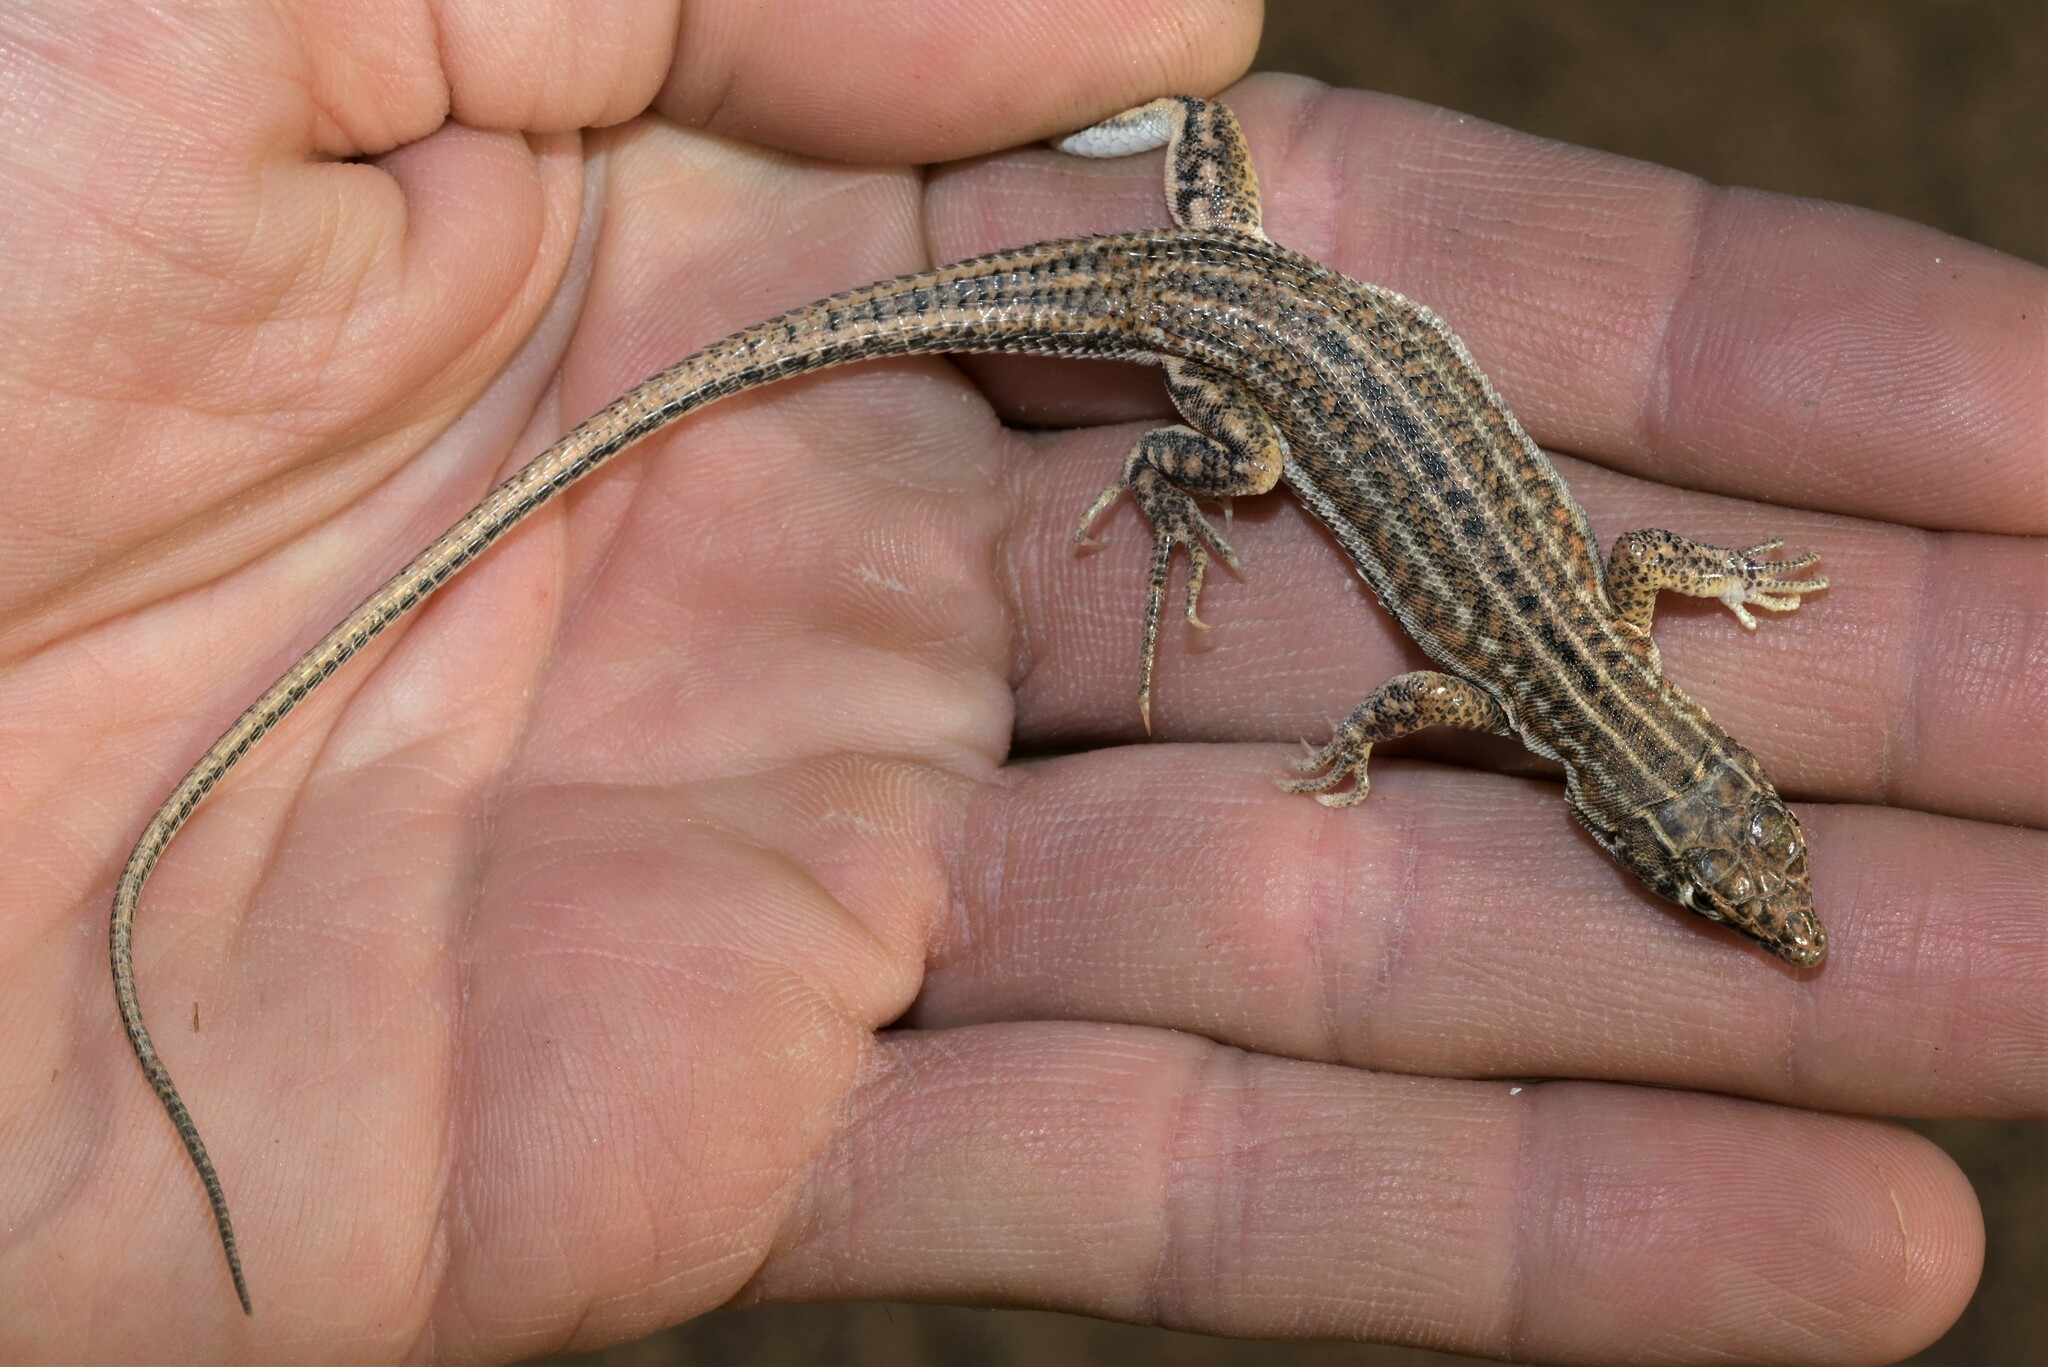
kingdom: Animalia
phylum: Chordata
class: Squamata
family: Lacertidae
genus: Acanthodactylus
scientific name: Acanthodactylus opheodurus
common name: Arnold's fringe-fingered lizard
